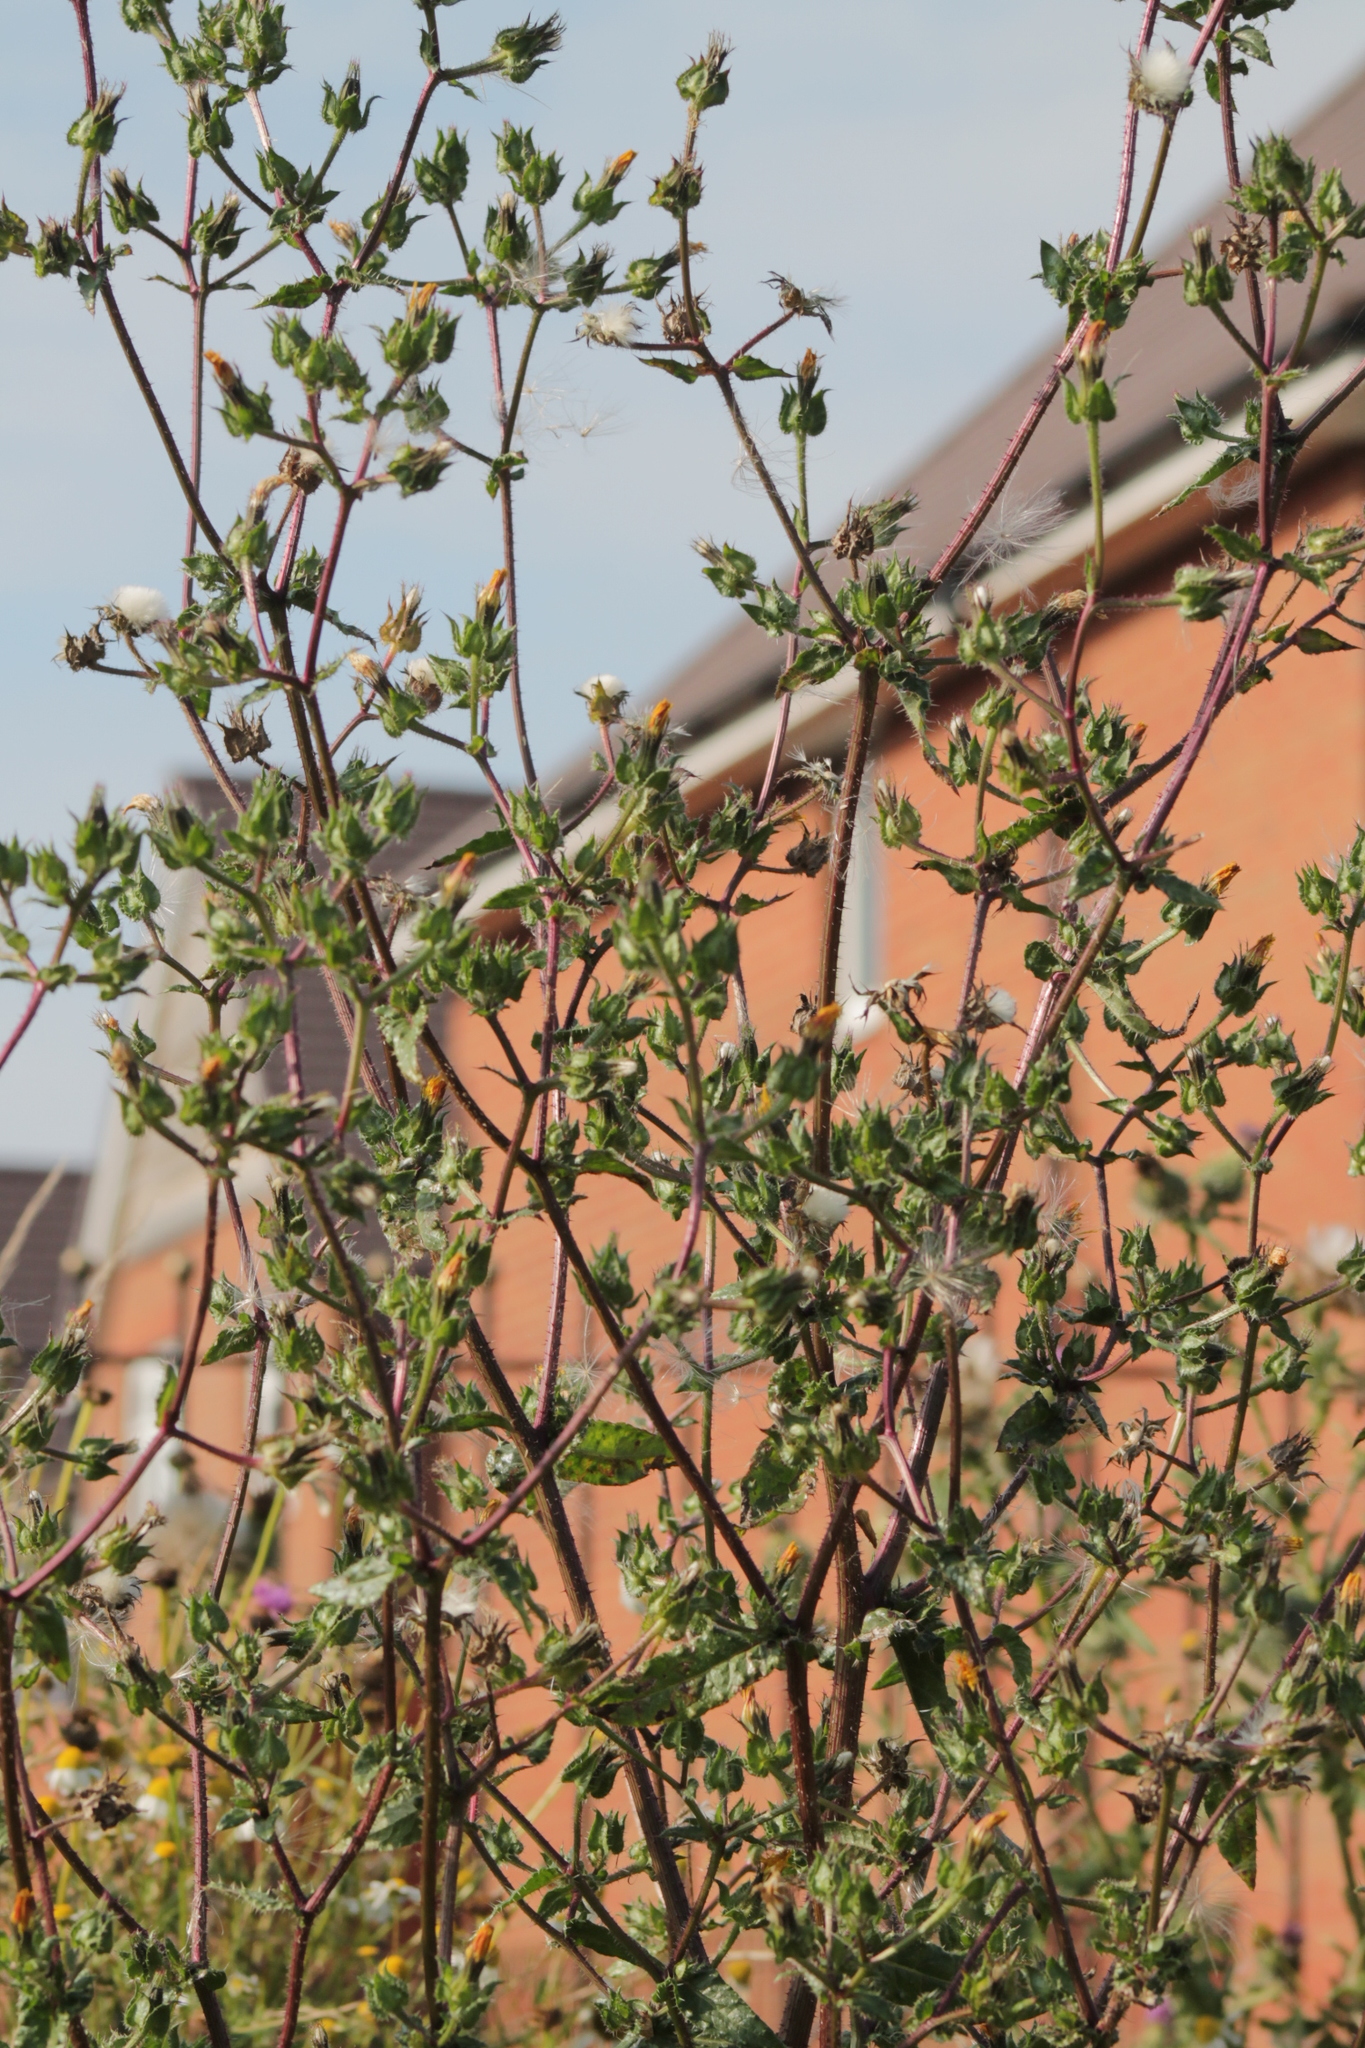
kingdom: Plantae
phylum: Tracheophyta
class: Magnoliopsida
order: Asterales
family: Asteraceae
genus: Helminthotheca
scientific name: Helminthotheca echioides
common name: Ox-tongue
